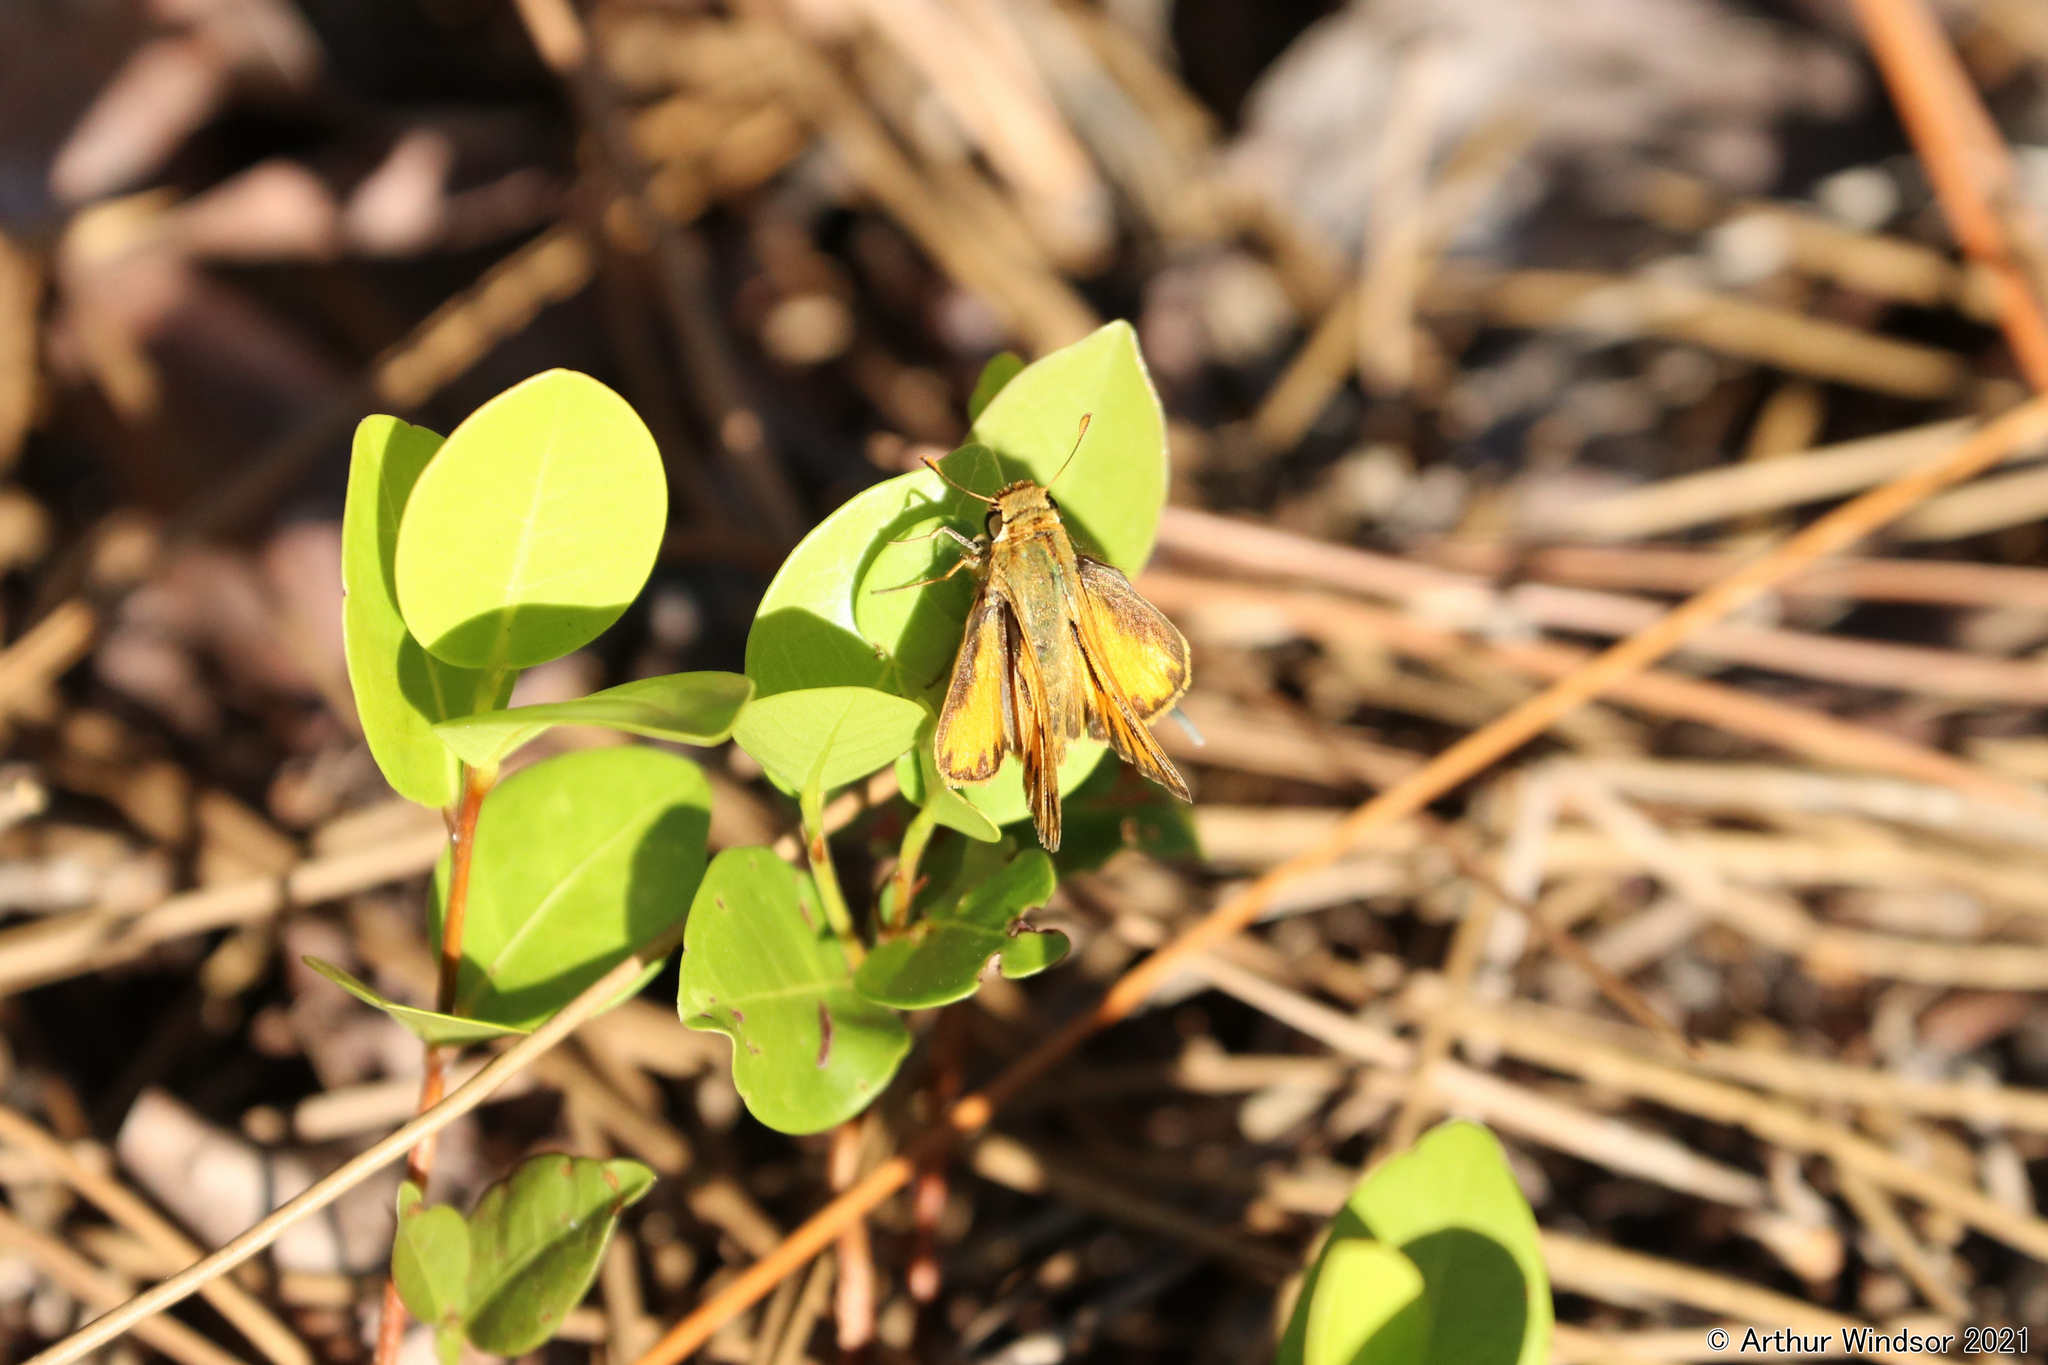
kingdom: Animalia
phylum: Arthropoda
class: Insecta
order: Lepidoptera
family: Hesperiidae
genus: Hylephila
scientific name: Hylephila phyleus
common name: Fiery skipper
